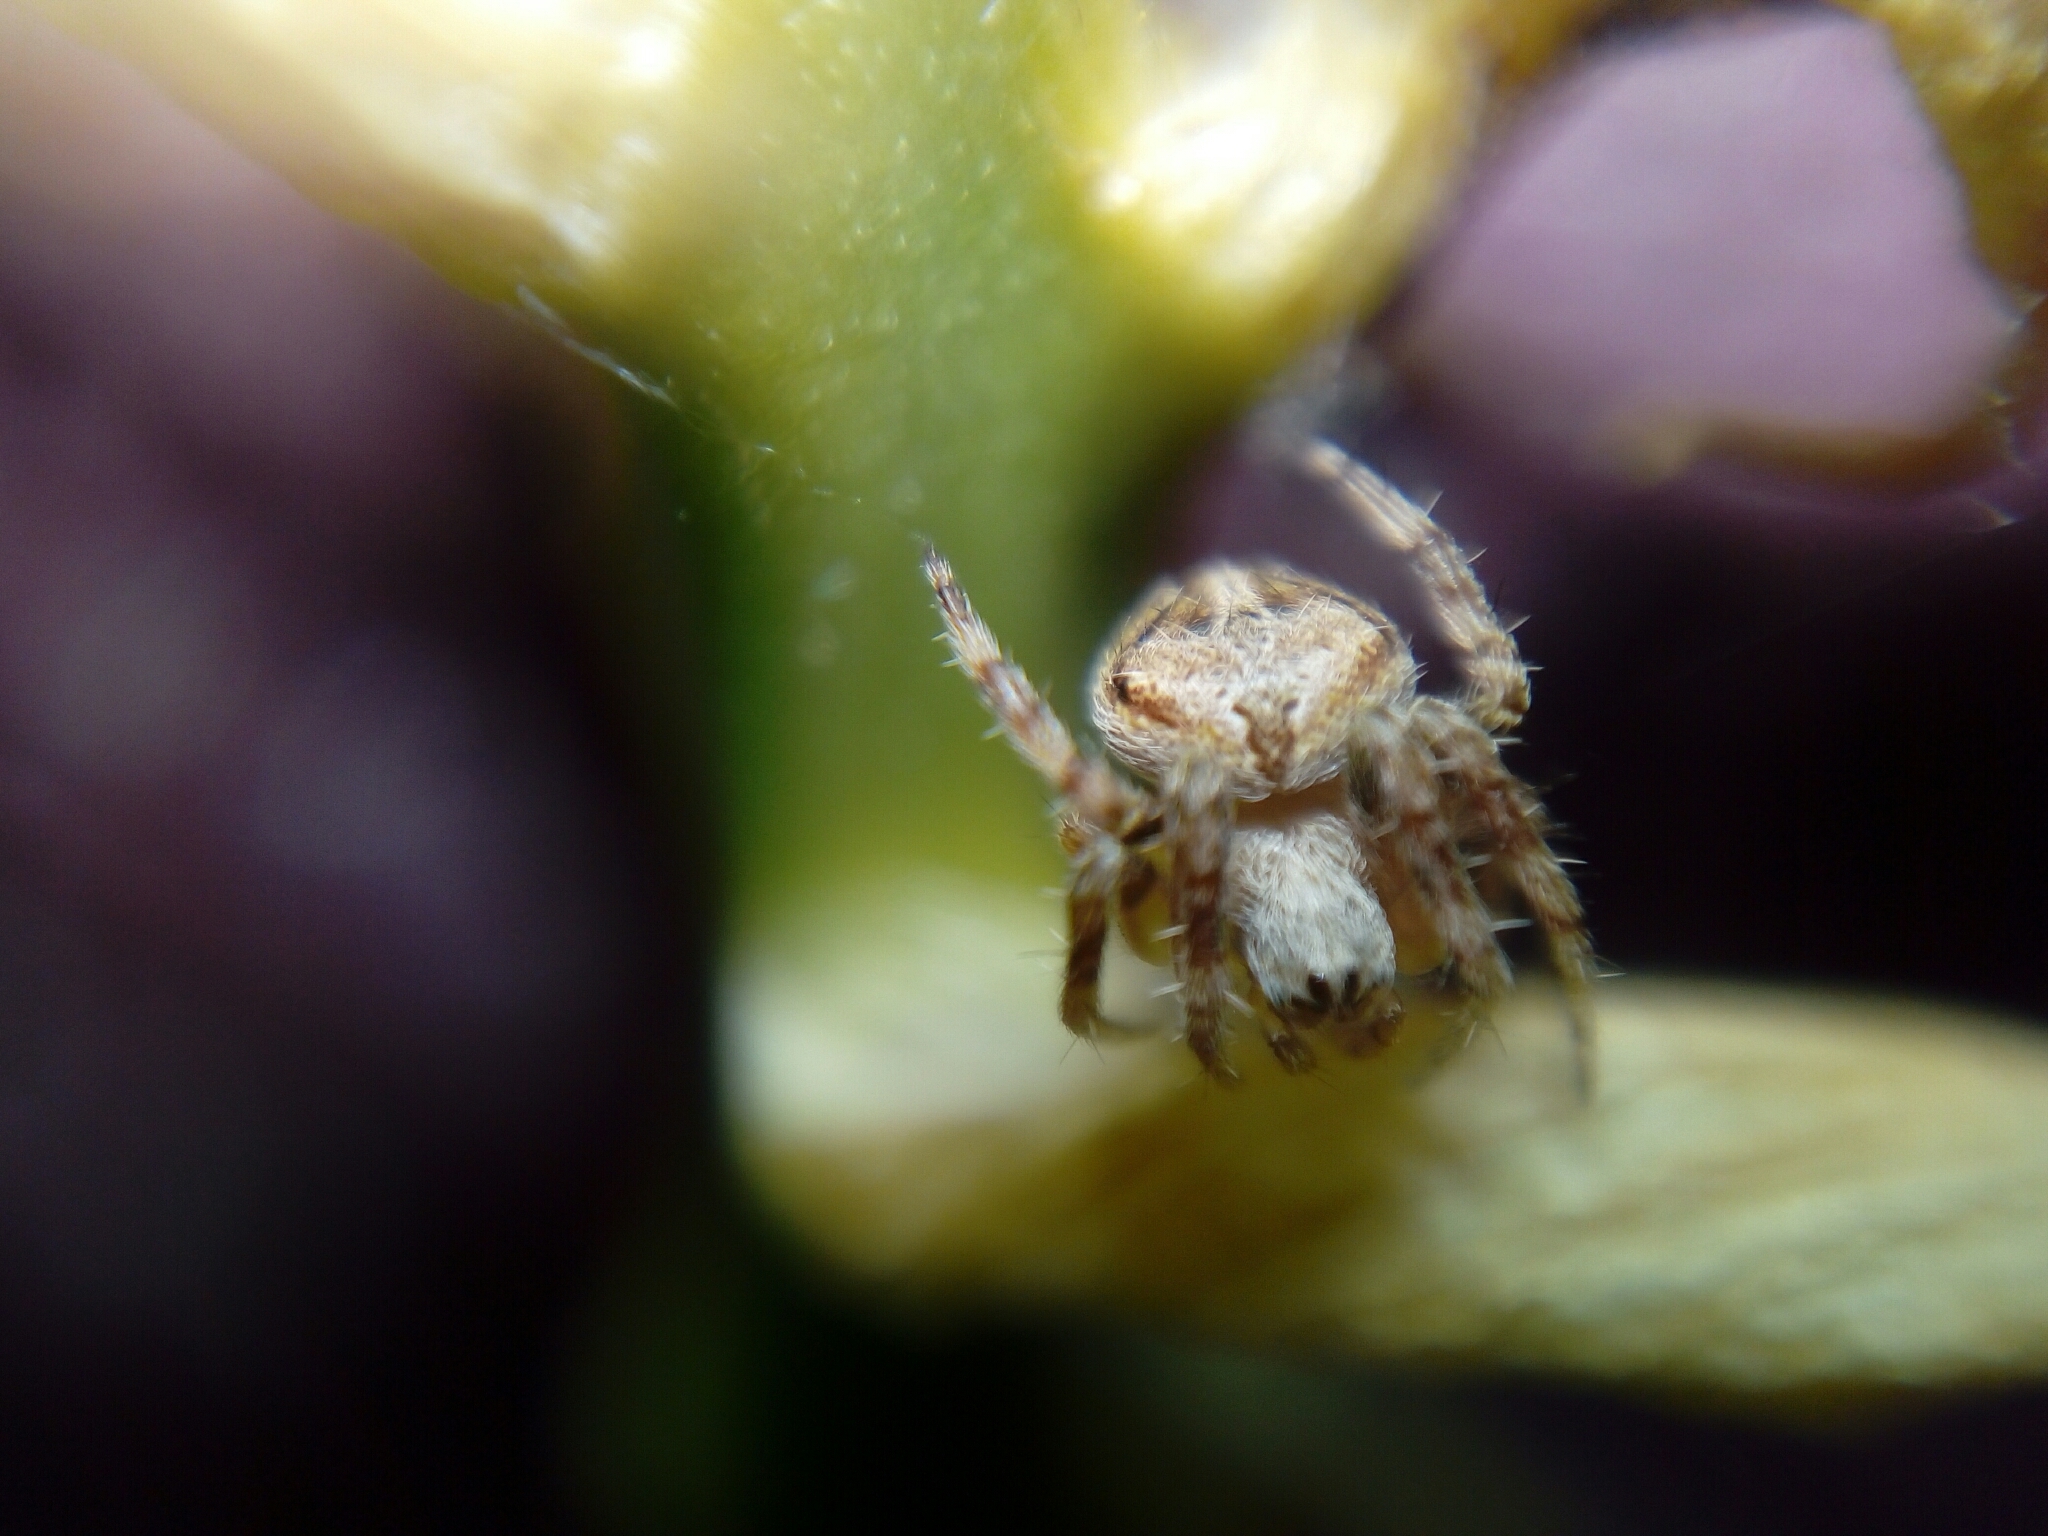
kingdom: Animalia
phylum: Arthropoda
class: Arachnida
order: Araneae
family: Araneidae
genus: Agalenatea
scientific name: Agalenatea redii
